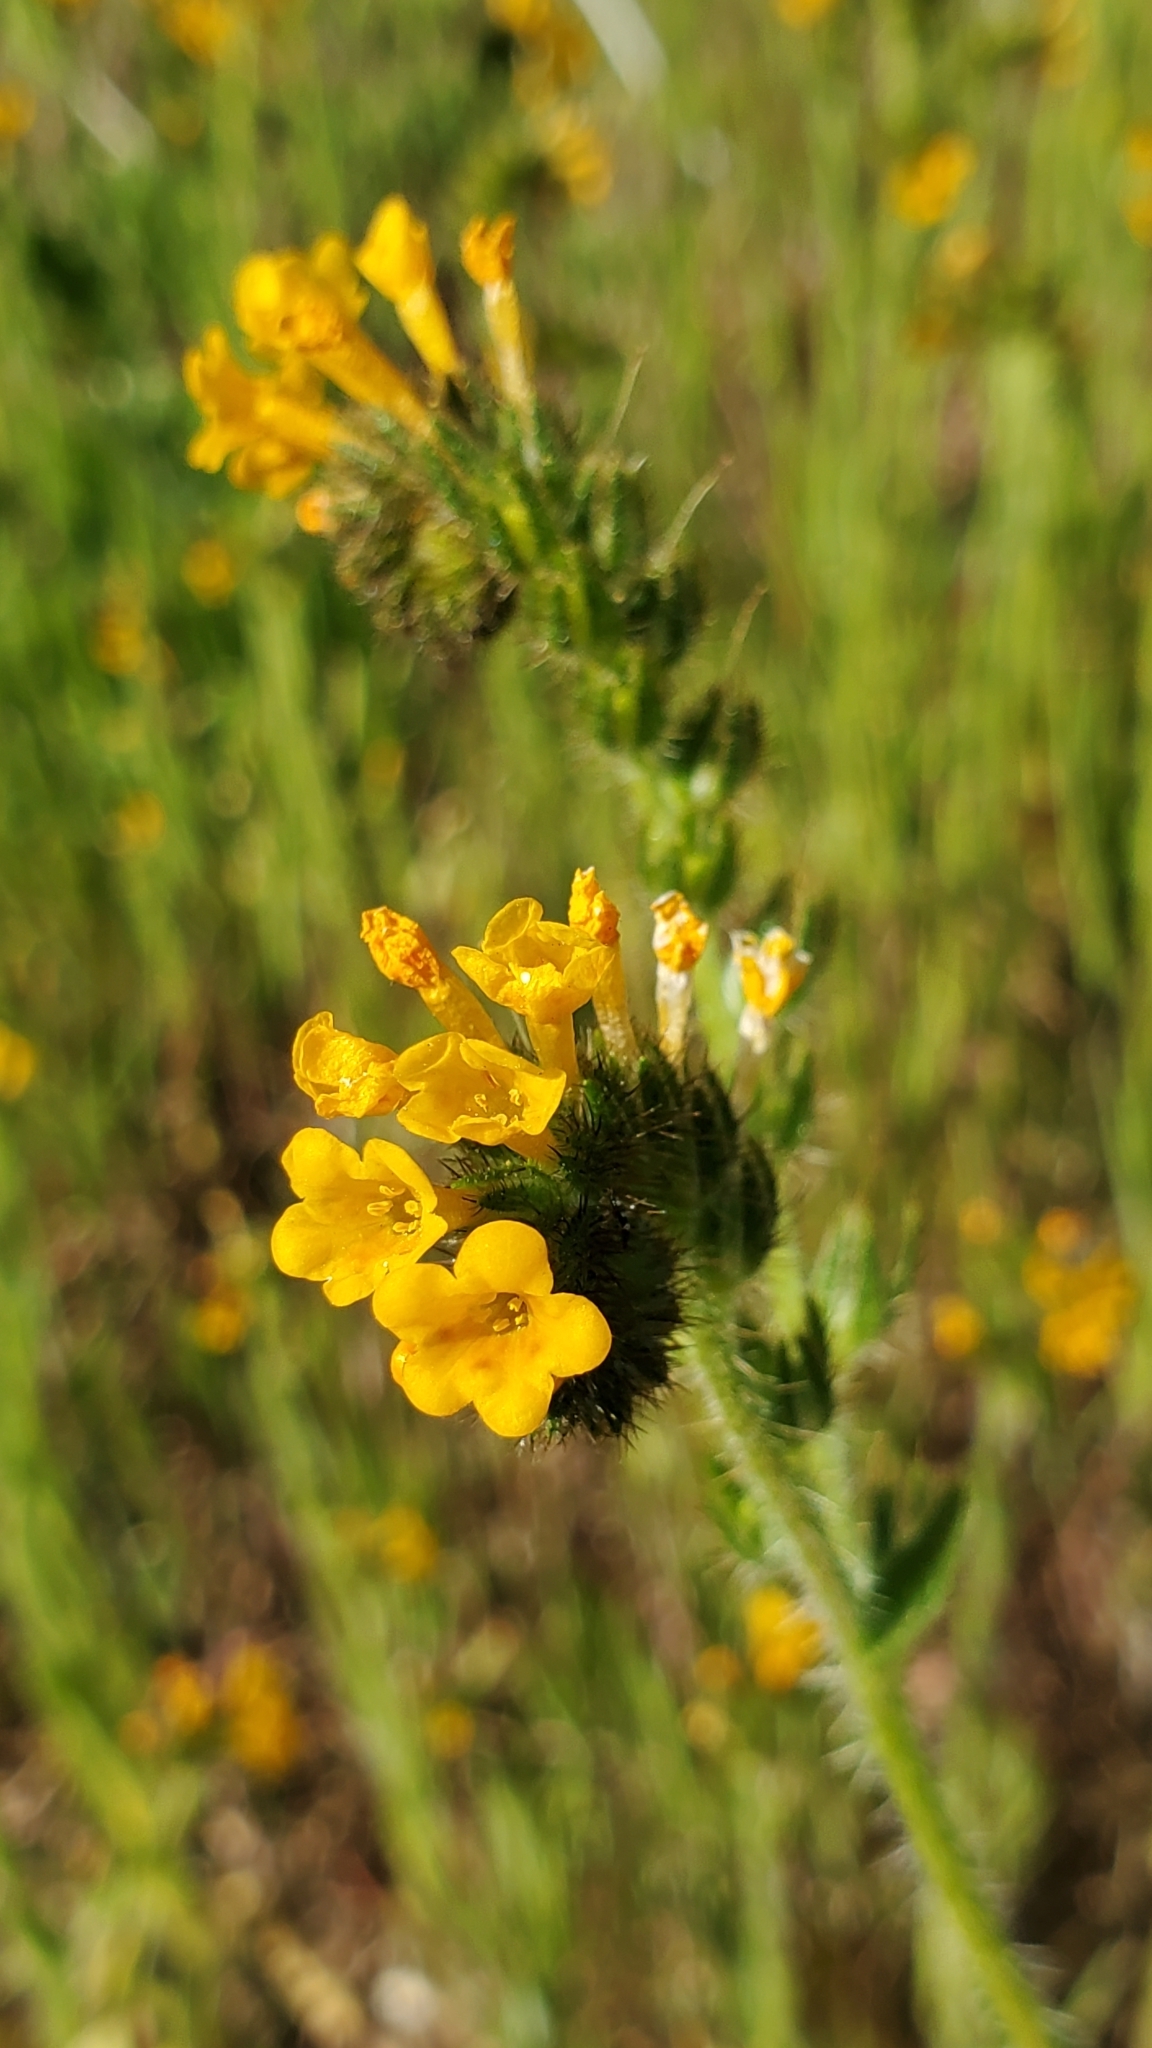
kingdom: Plantae
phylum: Tracheophyta
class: Magnoliopsida
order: Boraginales
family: Boraginaceae
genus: Amsinckia
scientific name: Amsinckia menziesii
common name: Menzies' fiddleneck
